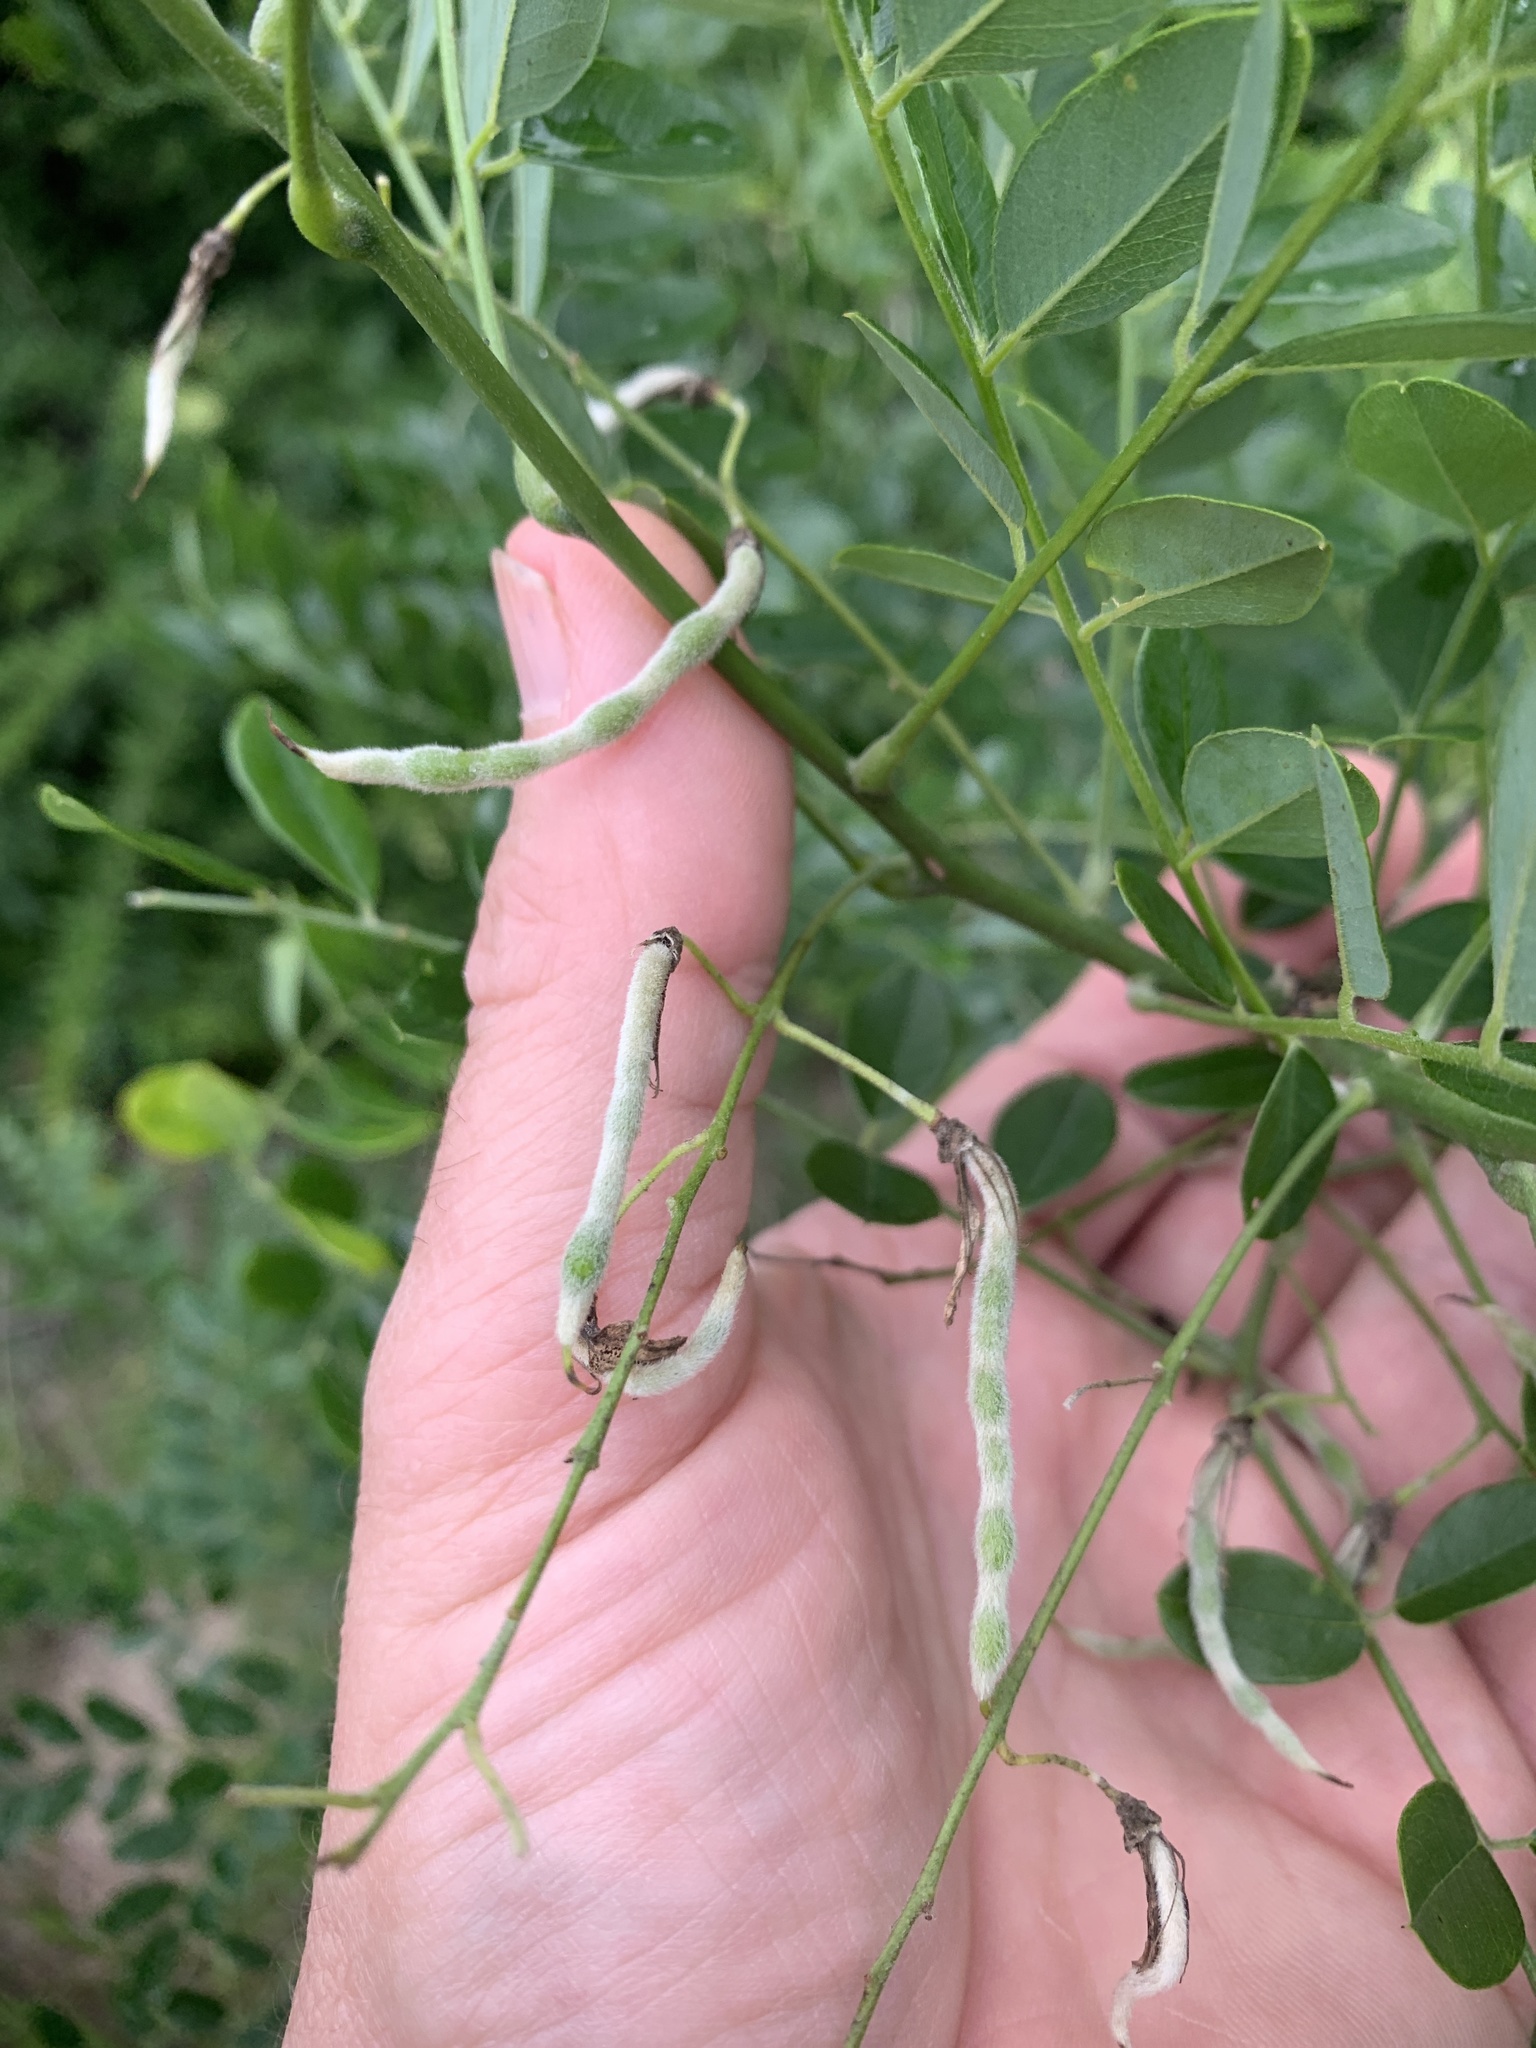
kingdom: Plantae
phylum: Tracheophyta
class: Magnoliopsida
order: Fabales
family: Fabaceae
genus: Styphnolobium
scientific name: Styphnolobium affine
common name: Texas sophora
